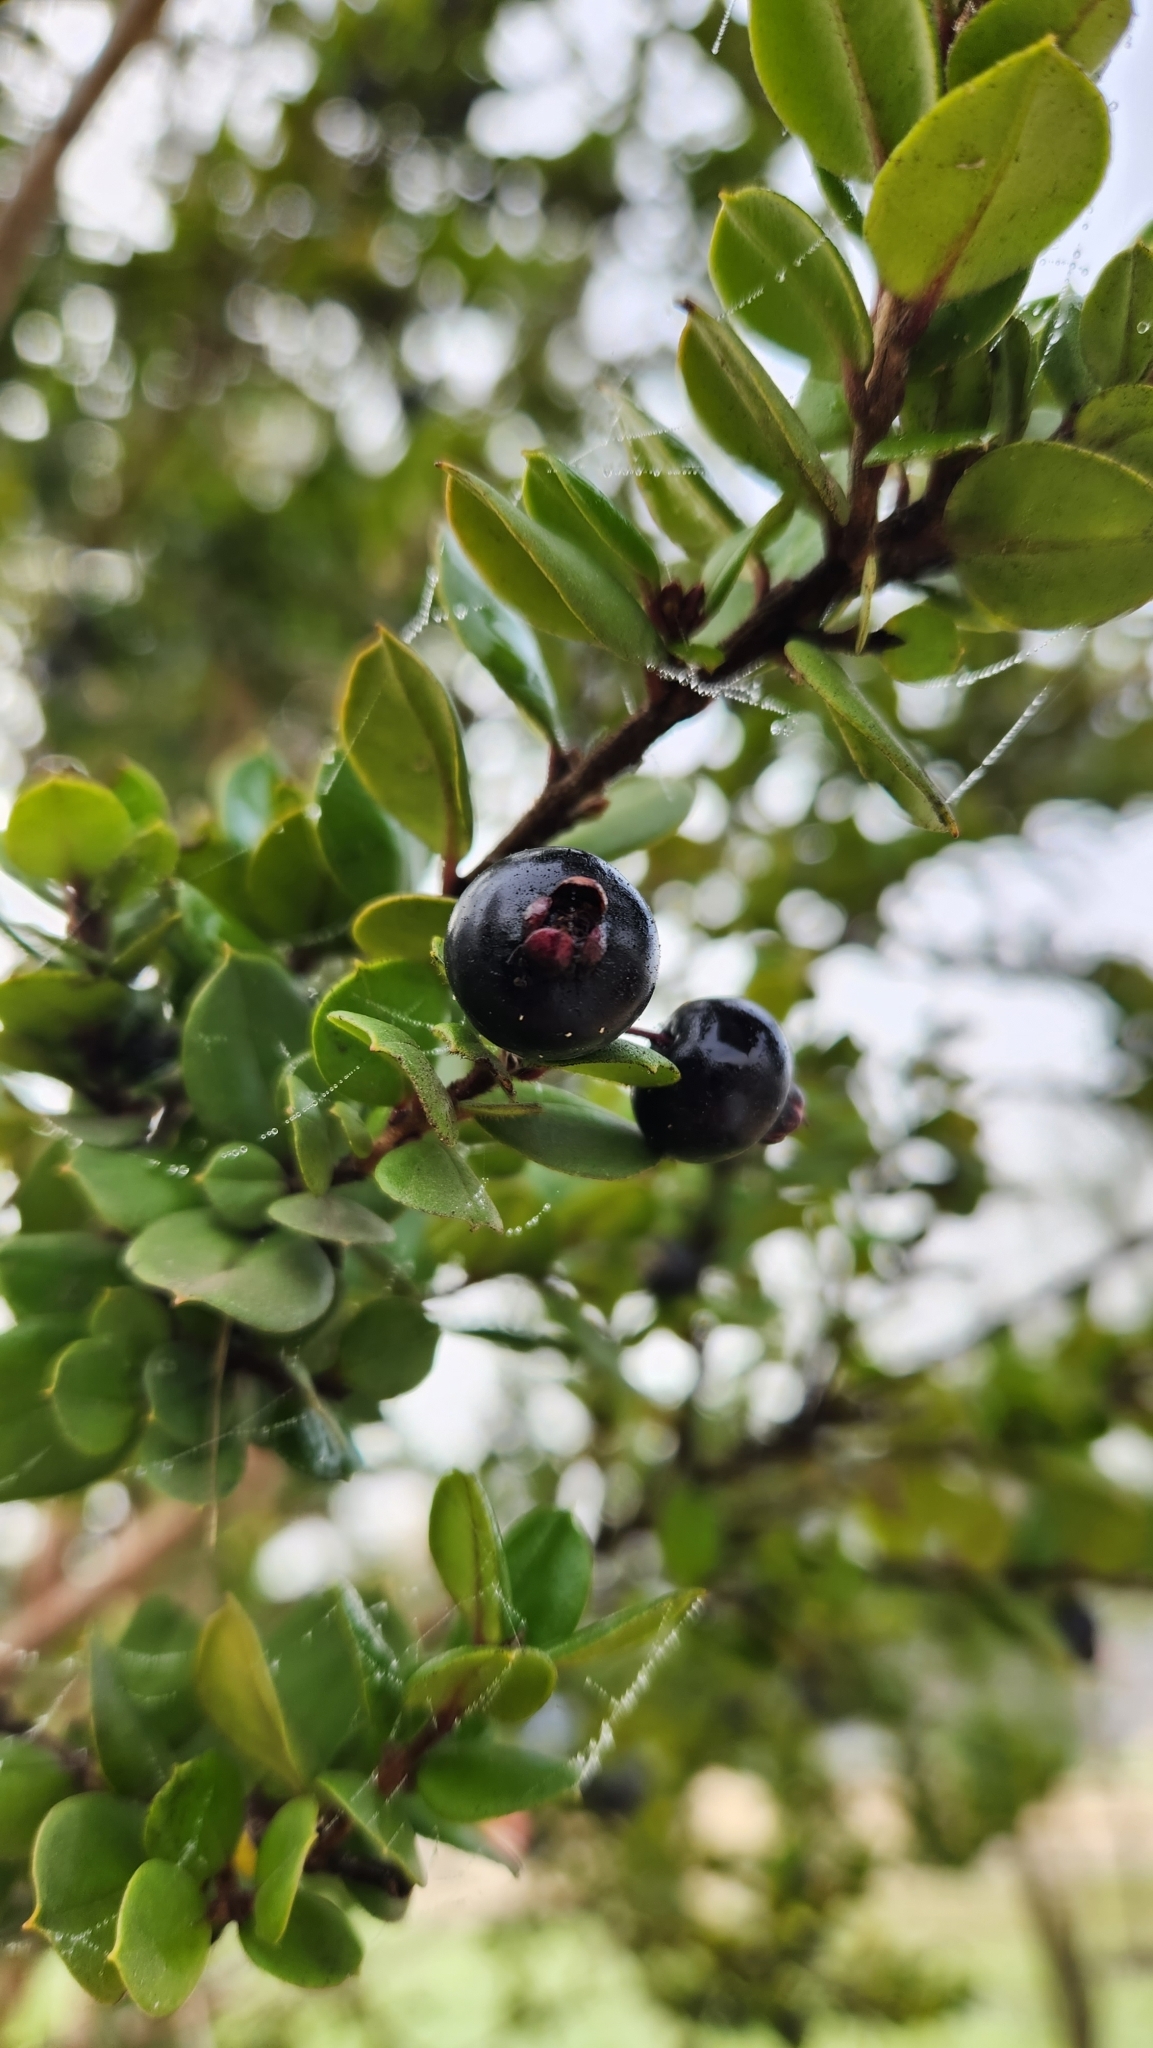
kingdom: Plantae
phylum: Tracheophyta
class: Magnoliopsida
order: Myrtales
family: Myrtaceae
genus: Luma
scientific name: Luma apiculata
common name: Chilean myrtle
